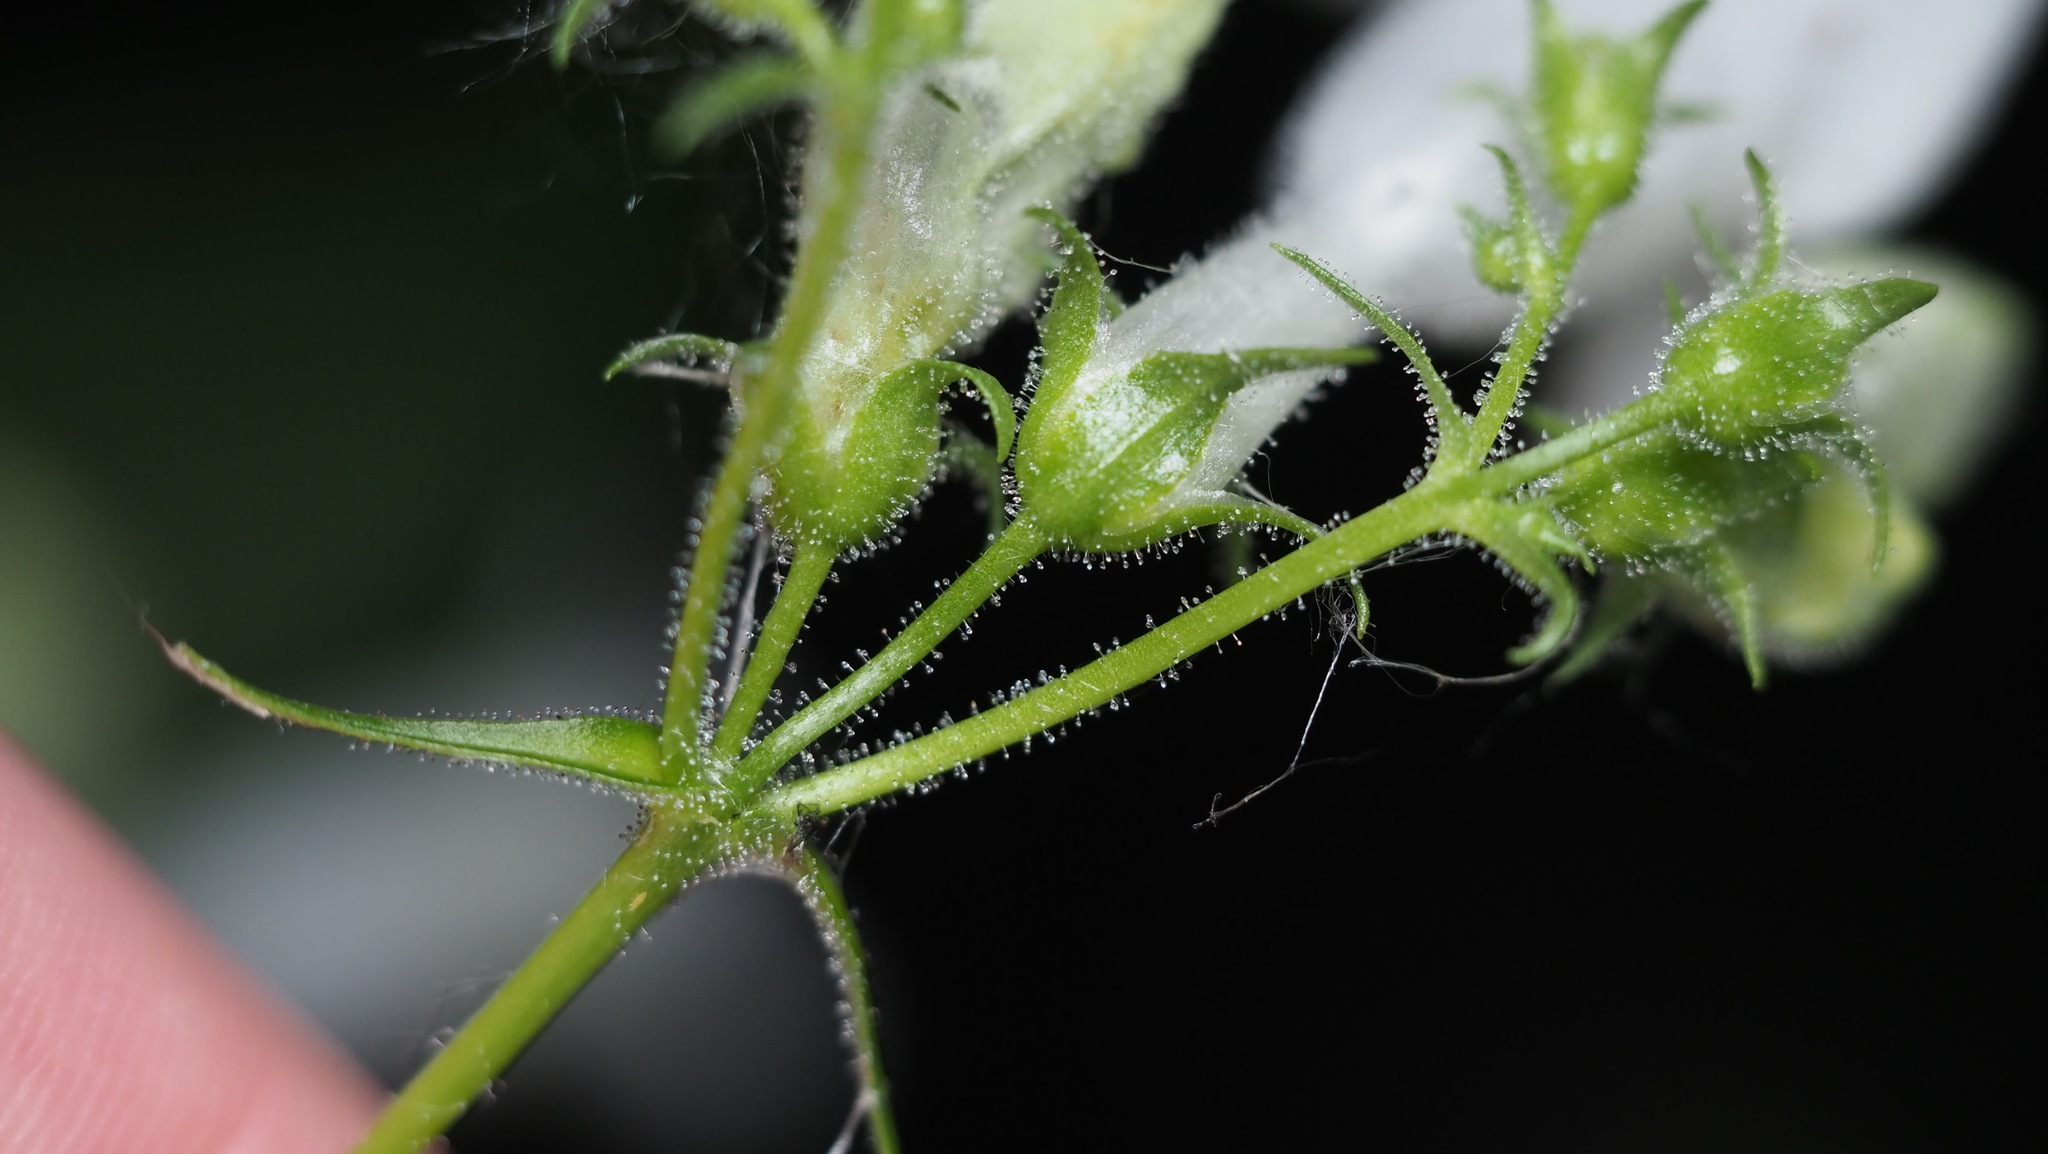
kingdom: Plantae
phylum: Tracheophyta
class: Magnoliopsida
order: Lamiales
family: Plantaginaceae
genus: Penstemon
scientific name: Penstemon digitalis
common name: Foxglove beardtongue
